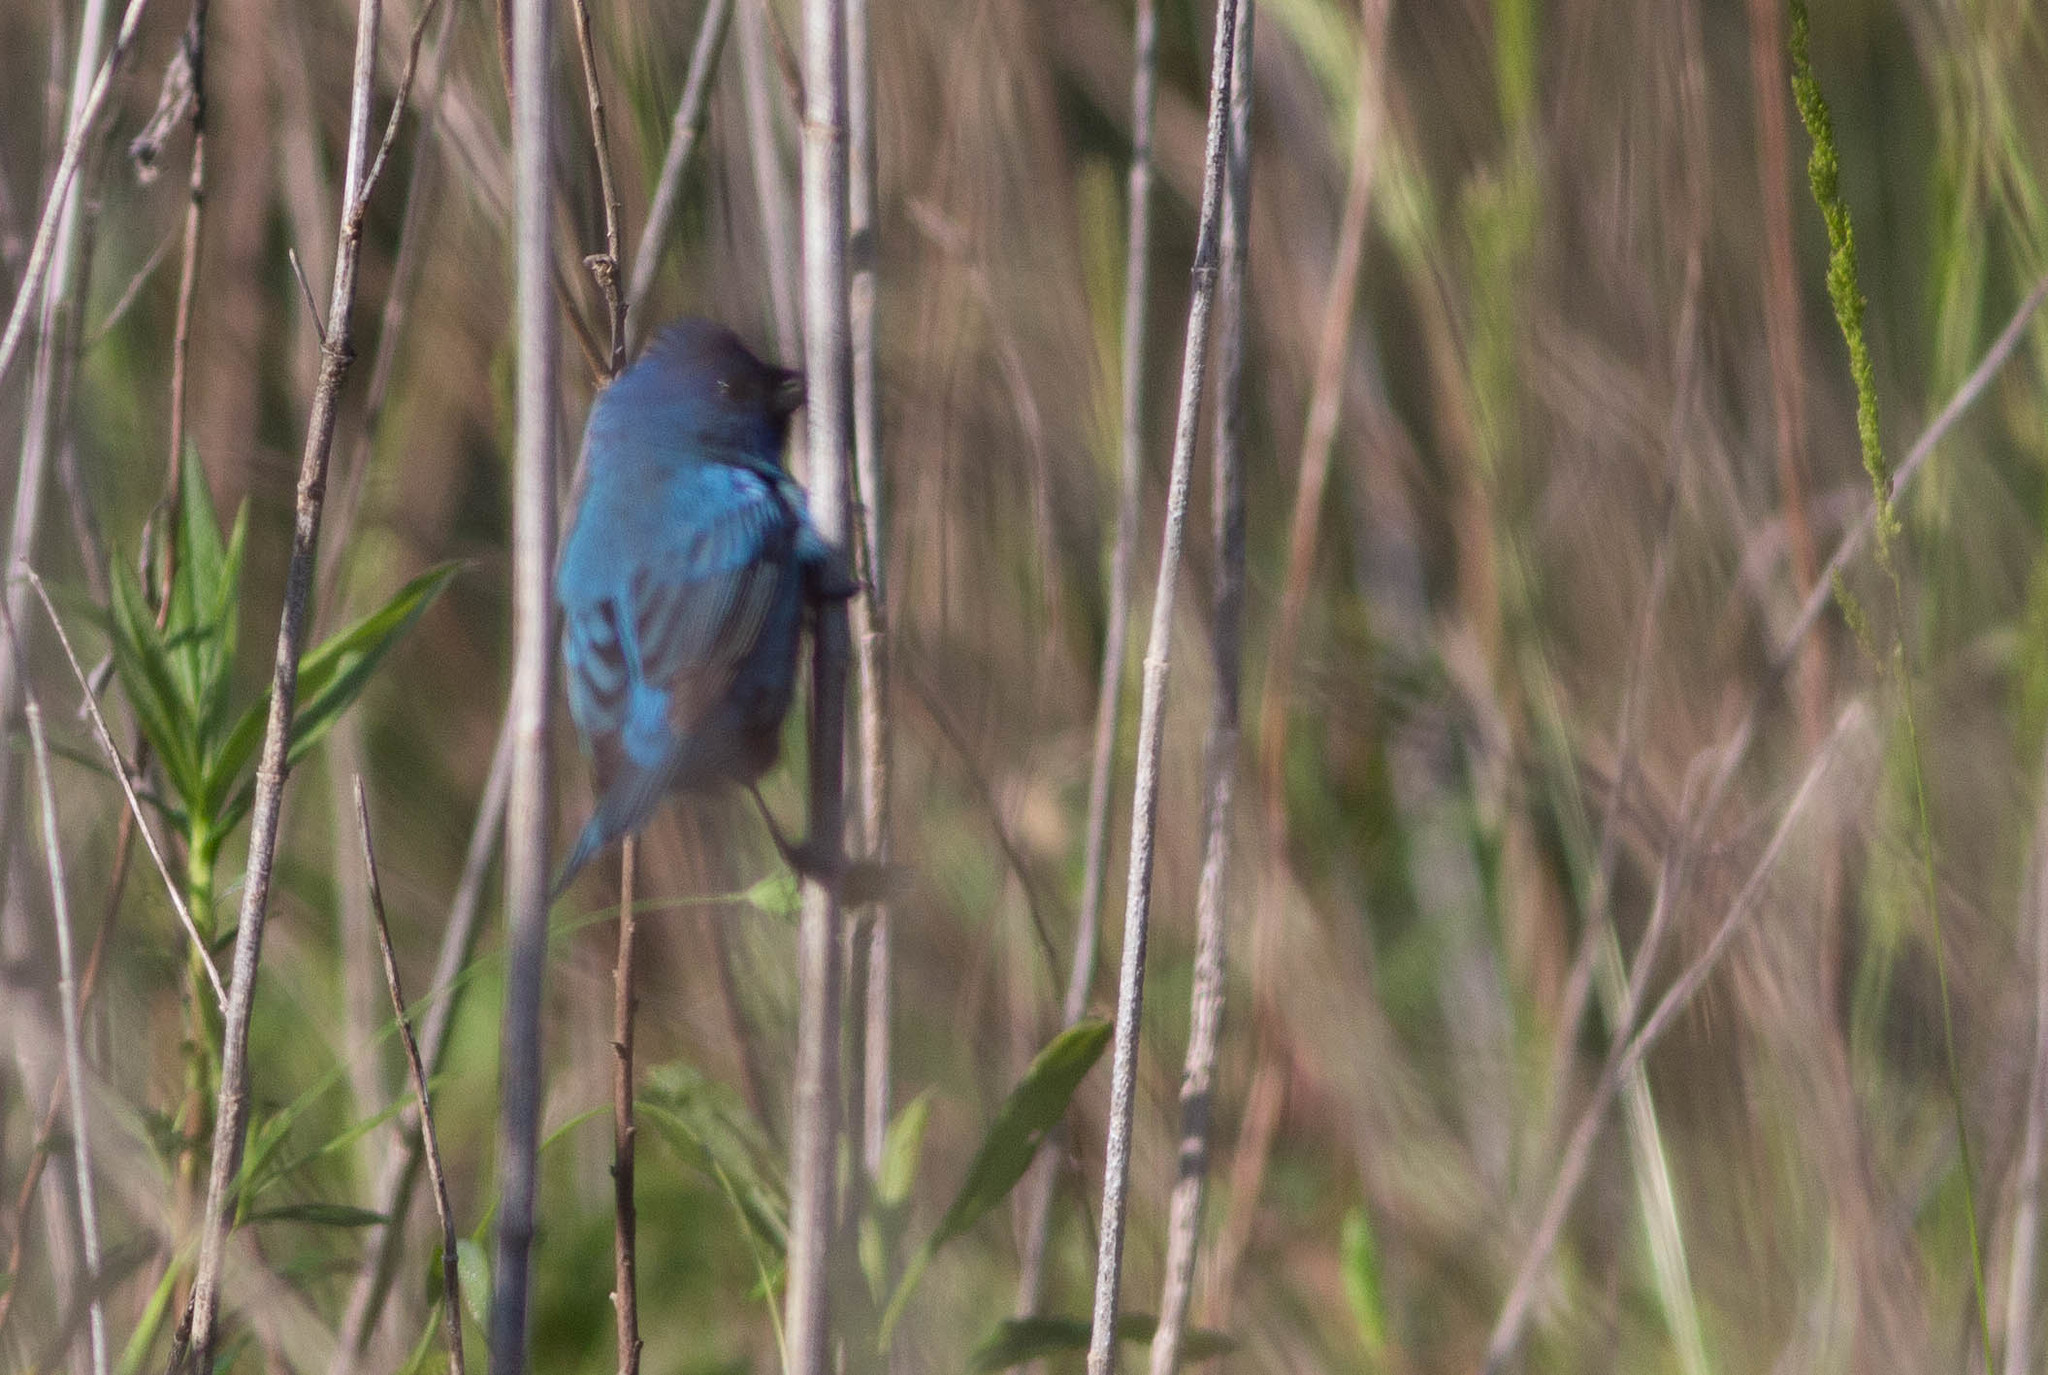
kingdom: Animalia
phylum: Chordata
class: Aves
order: Passeriformes
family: Cardinalidae
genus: Passerina
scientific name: Passerina cyanea
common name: Indigo bunting
